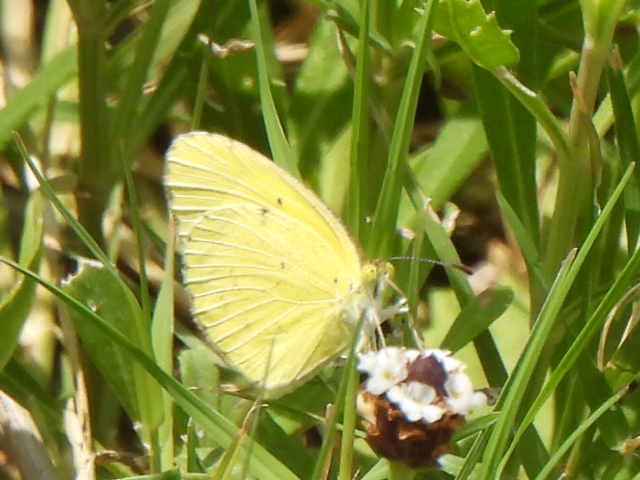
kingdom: Animalia
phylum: Arthropoda
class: Insecta
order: Lepidoptera
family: Pieridae
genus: Pyrisitia
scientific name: Pyrisitia lisa
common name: Little yellow
